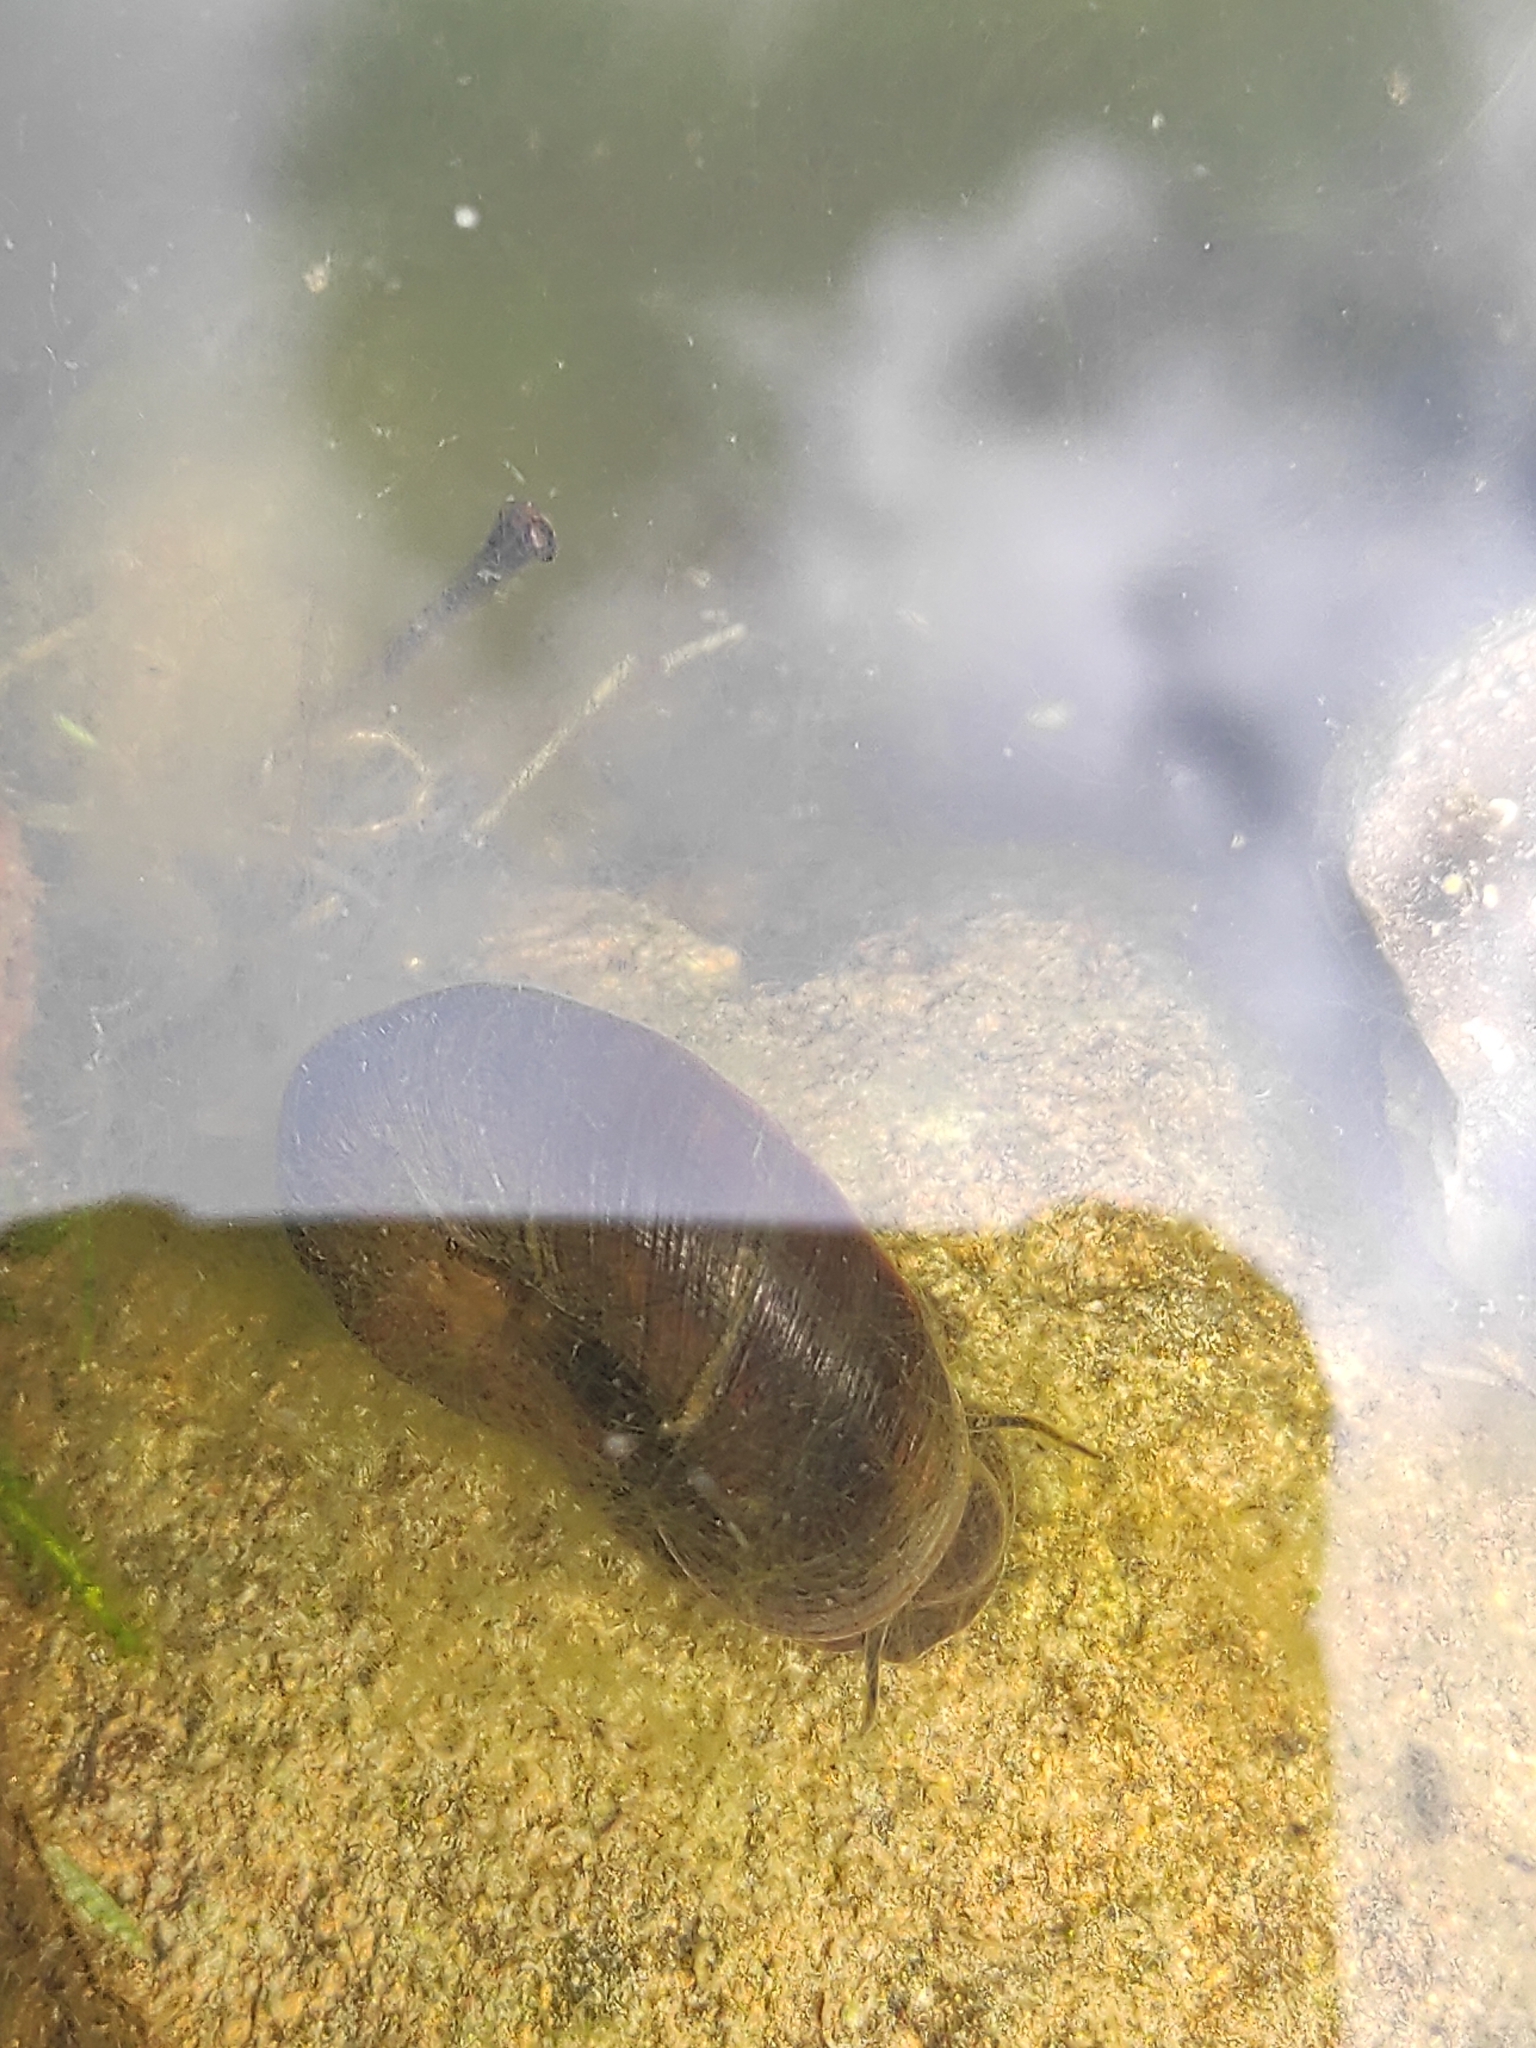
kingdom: Animalia
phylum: Mollusca
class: Gastropoda
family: Planorbidae
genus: Planorbarius
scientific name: Planorbarius corneus
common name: Great ramshorn
